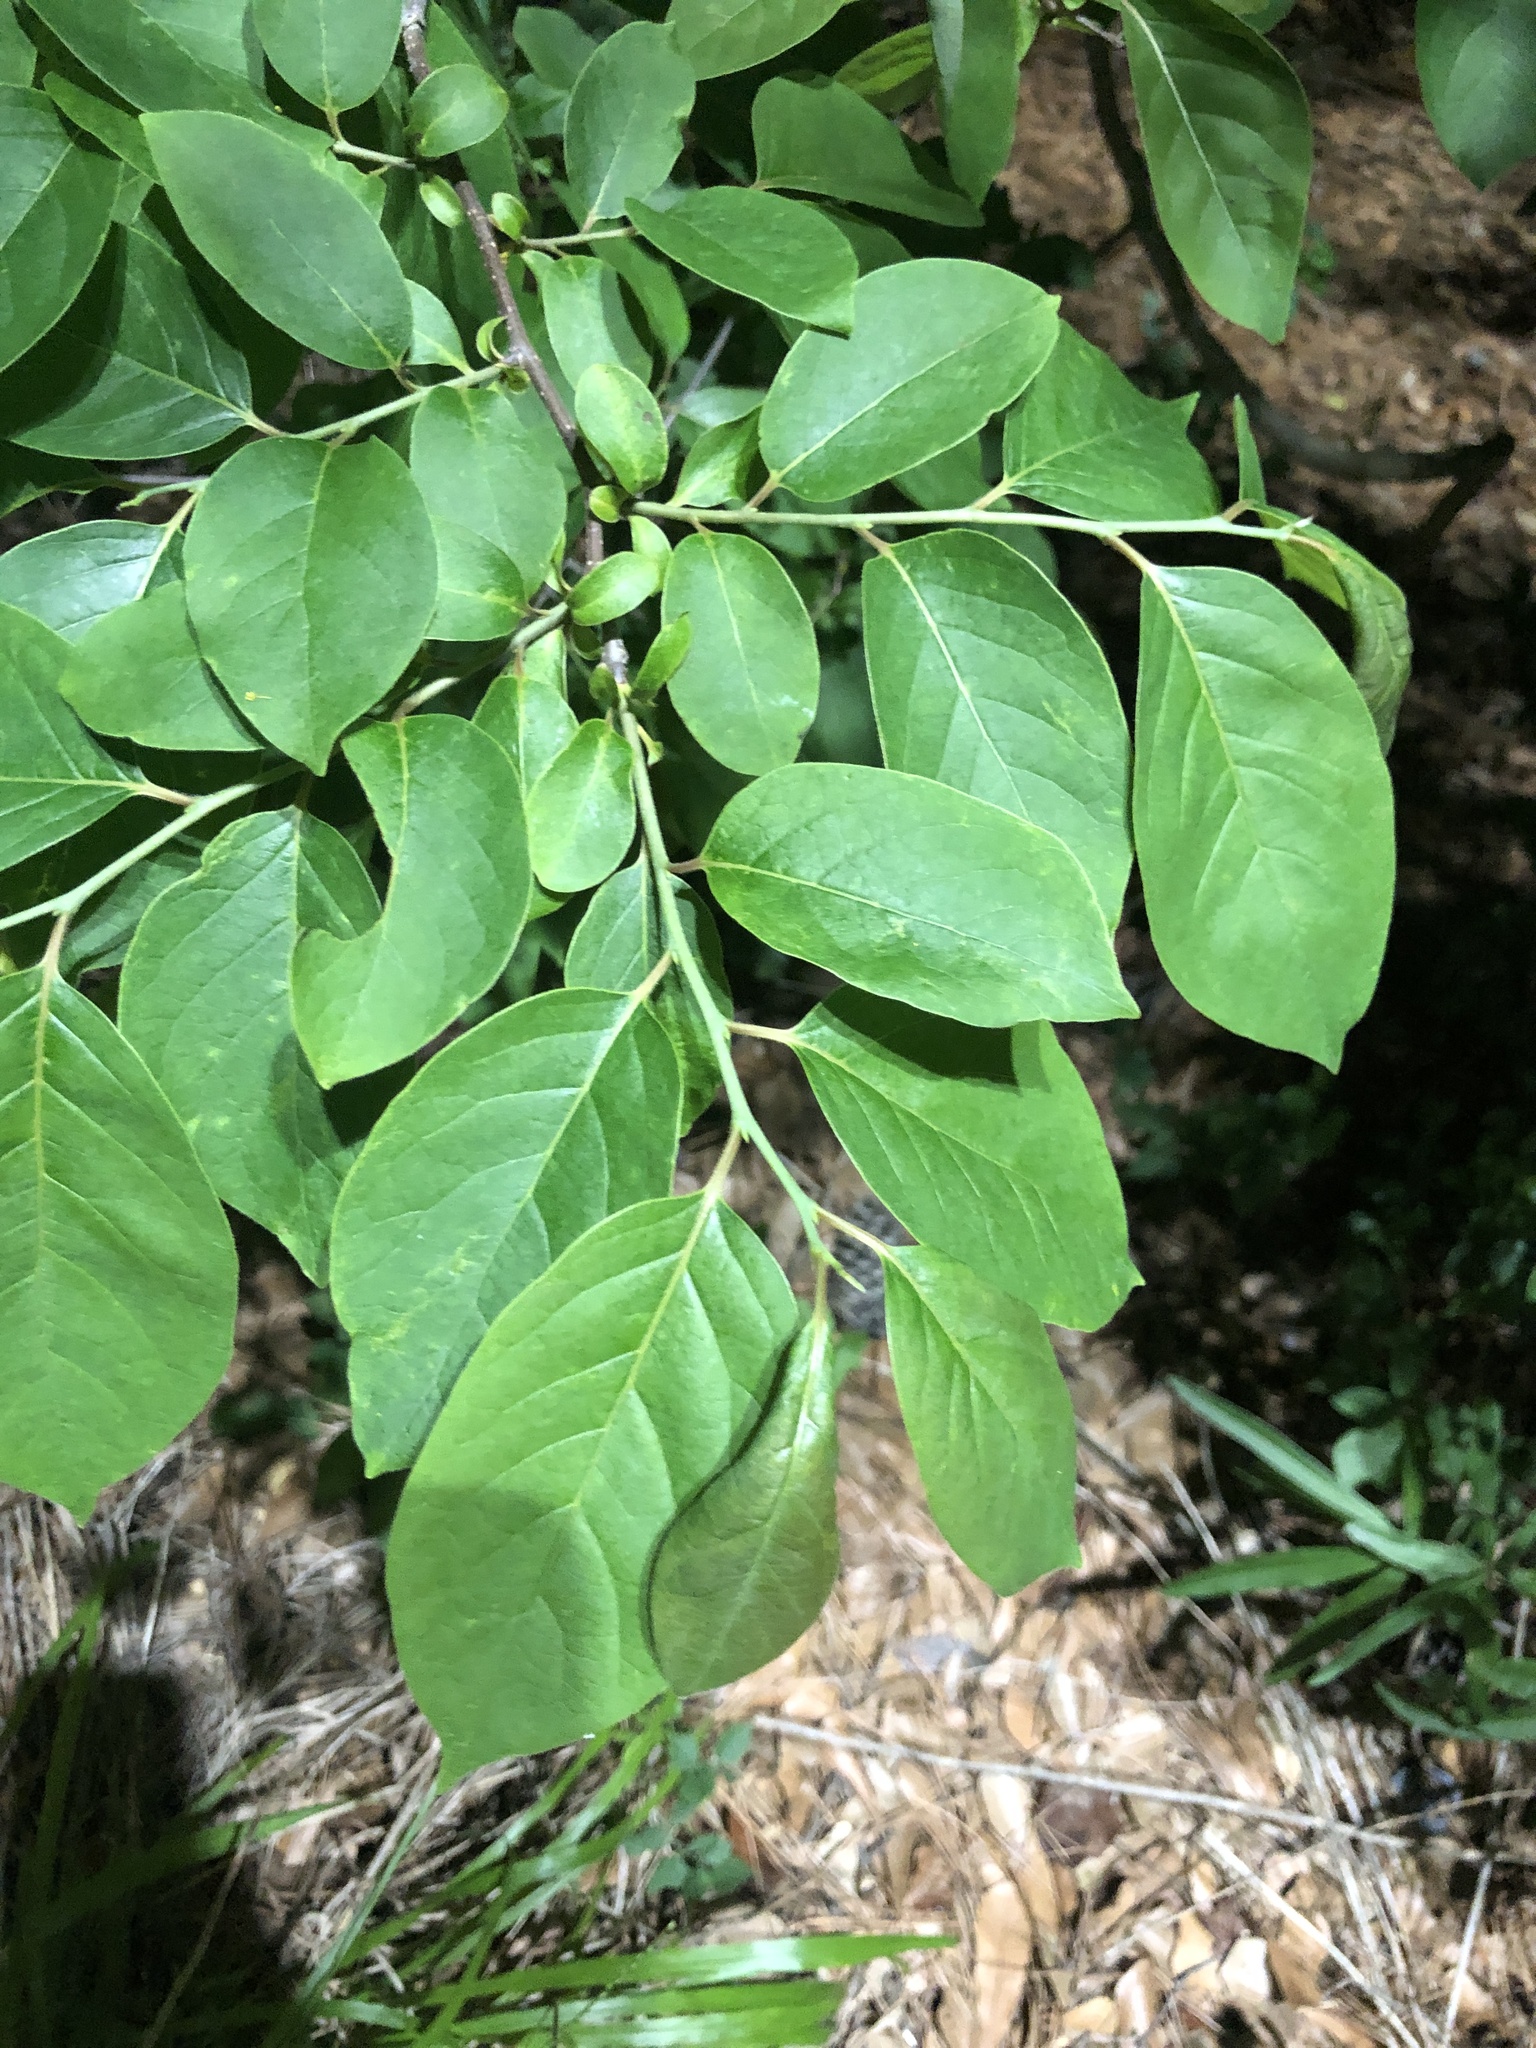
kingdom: Plantae
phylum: Tracheophyta
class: Magnoliopsida
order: Ericales
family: Ebenaceae
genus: Diospyros
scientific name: Diospyros virginiana
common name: Persimmon
